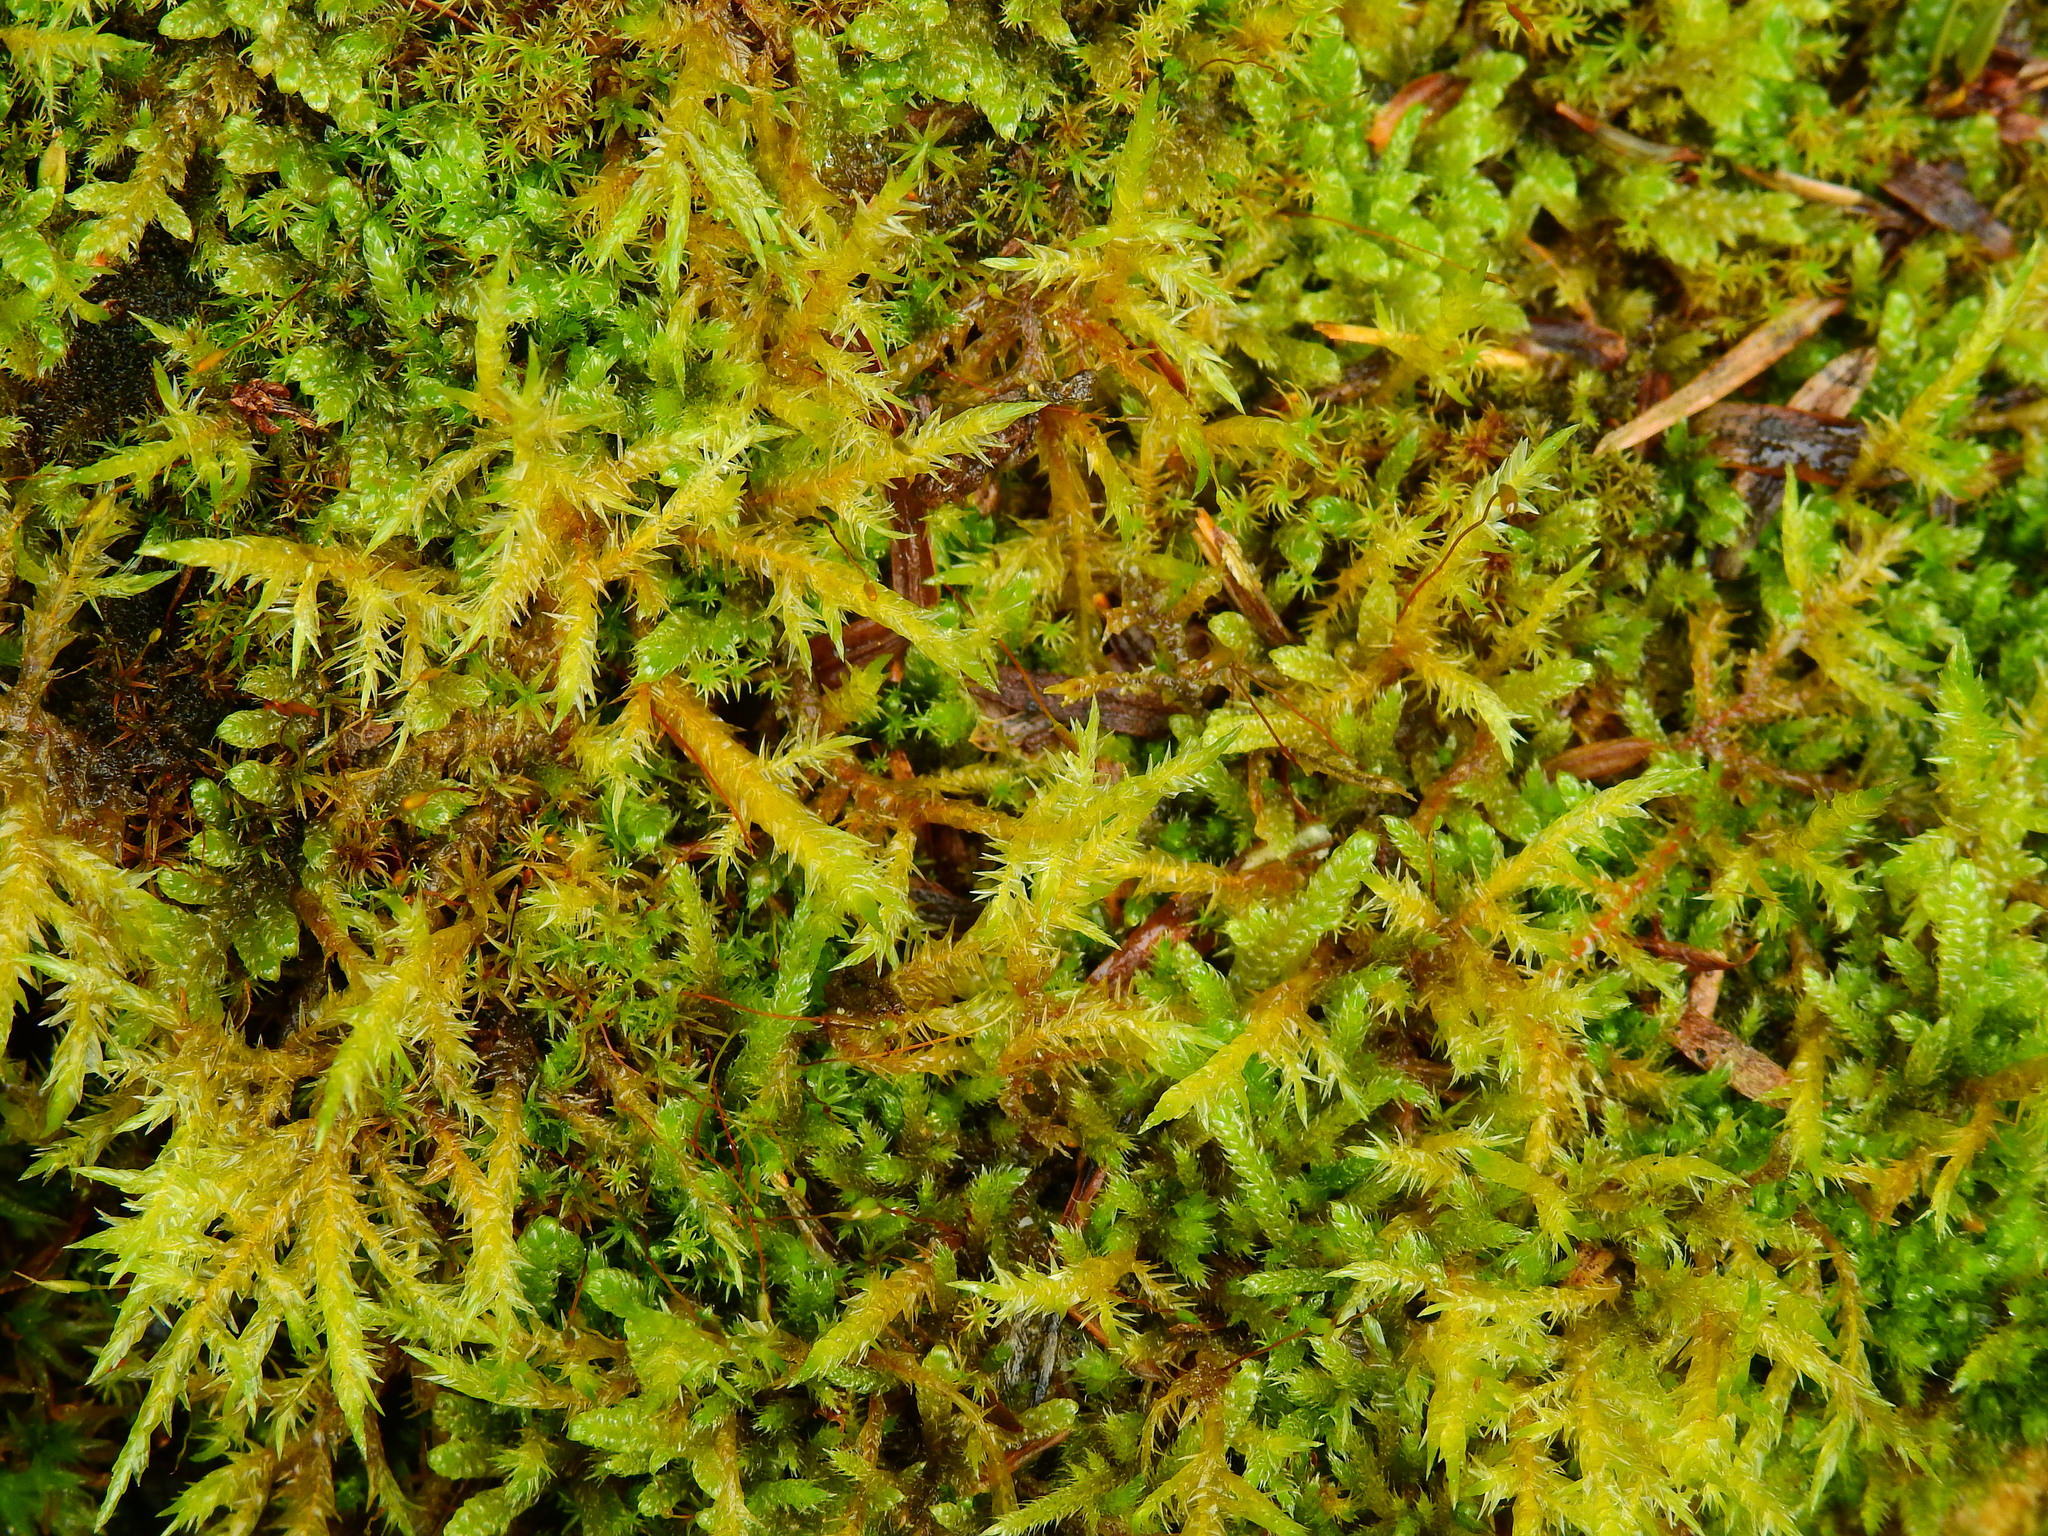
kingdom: Plantae
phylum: Bryophyta
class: Bryopsida
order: Hypnales
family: Pylaisiaceae
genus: Calliergonella
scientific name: Calliergonella cuspidata
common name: Common large wetland moss
